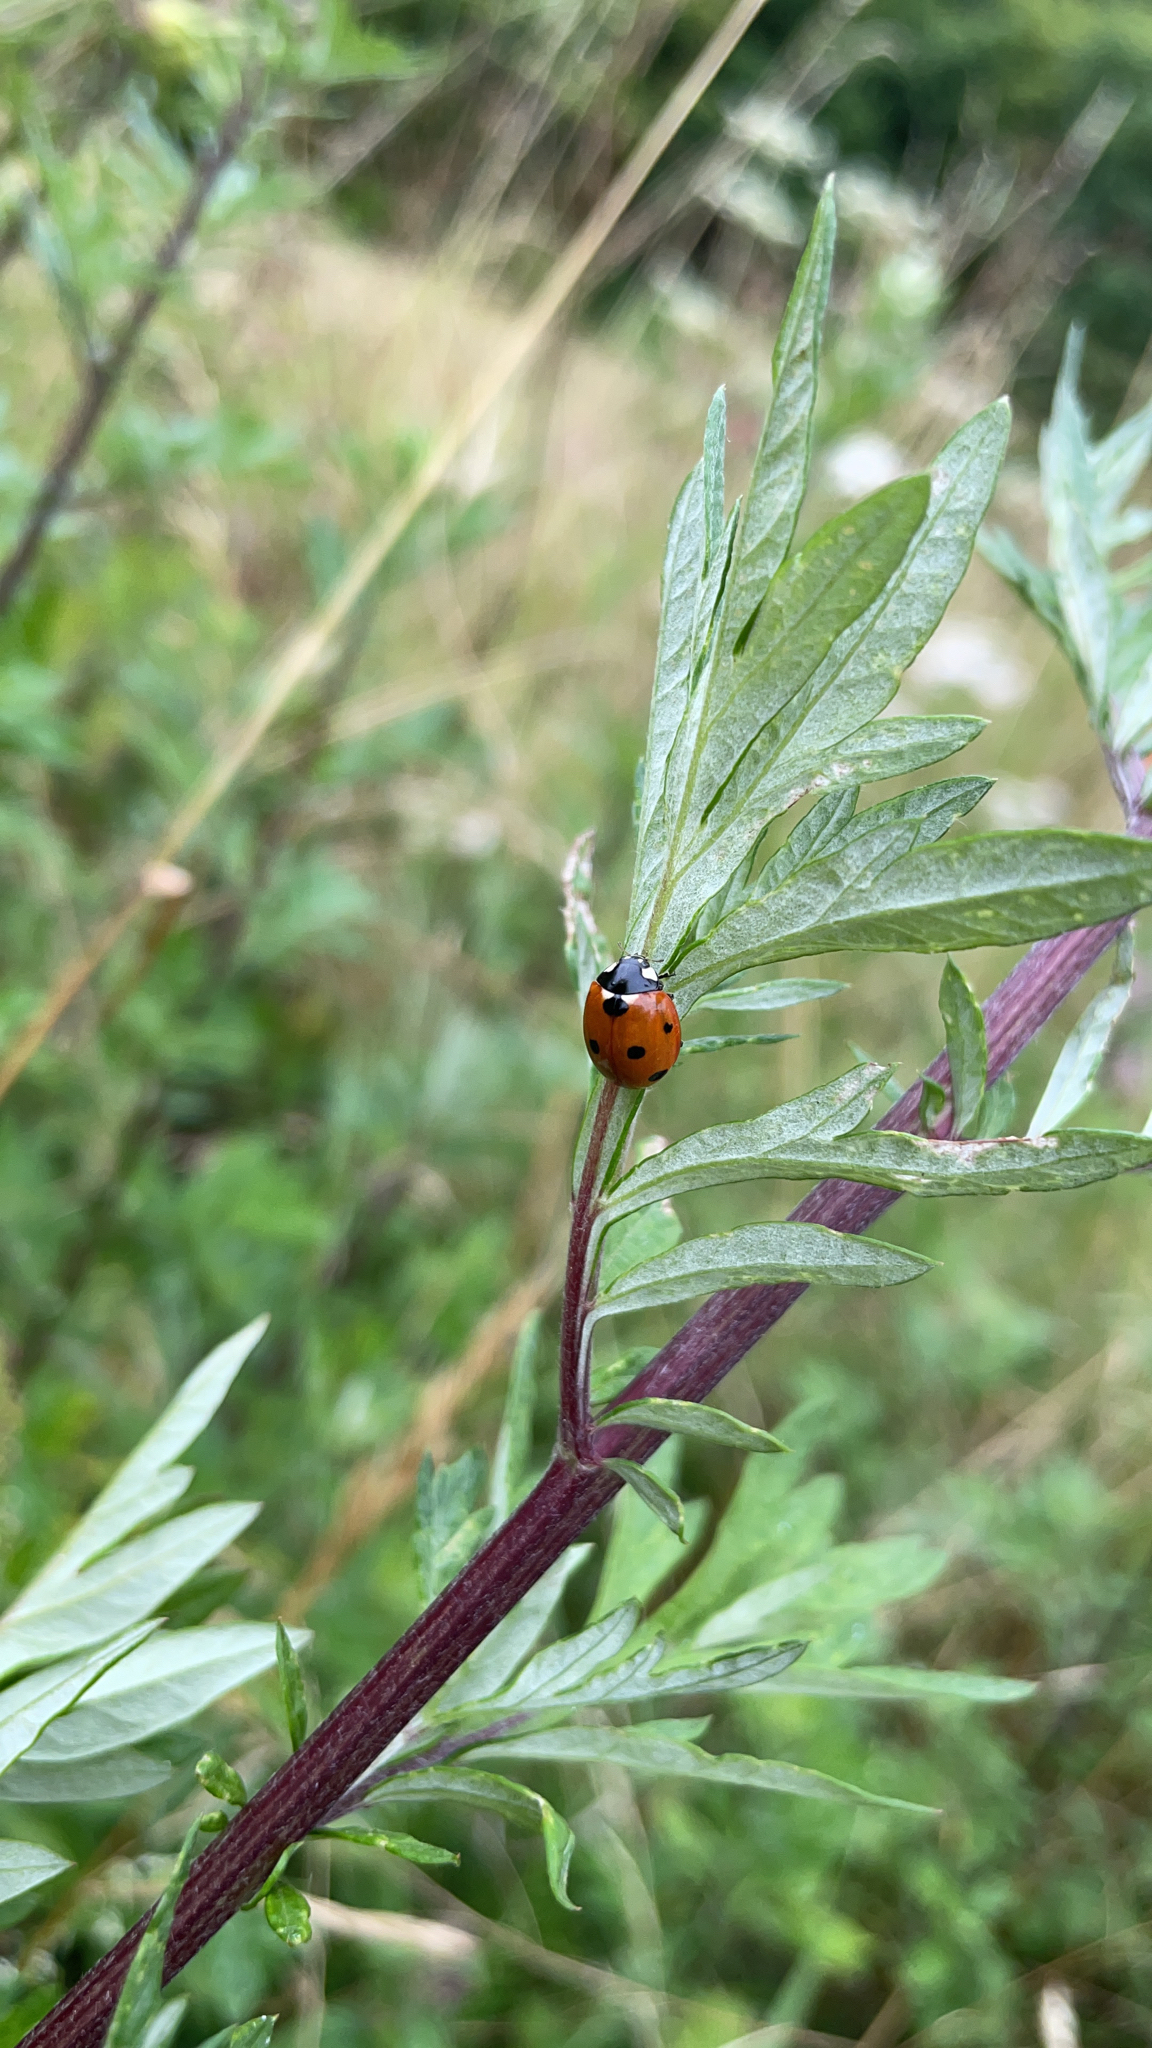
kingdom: Animalia
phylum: Arthropoda
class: Insecta
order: Coleoptera
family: Coccinellidae
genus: Coccinella
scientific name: Coccinella septempunctata
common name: Sevenspotted lady beetle
